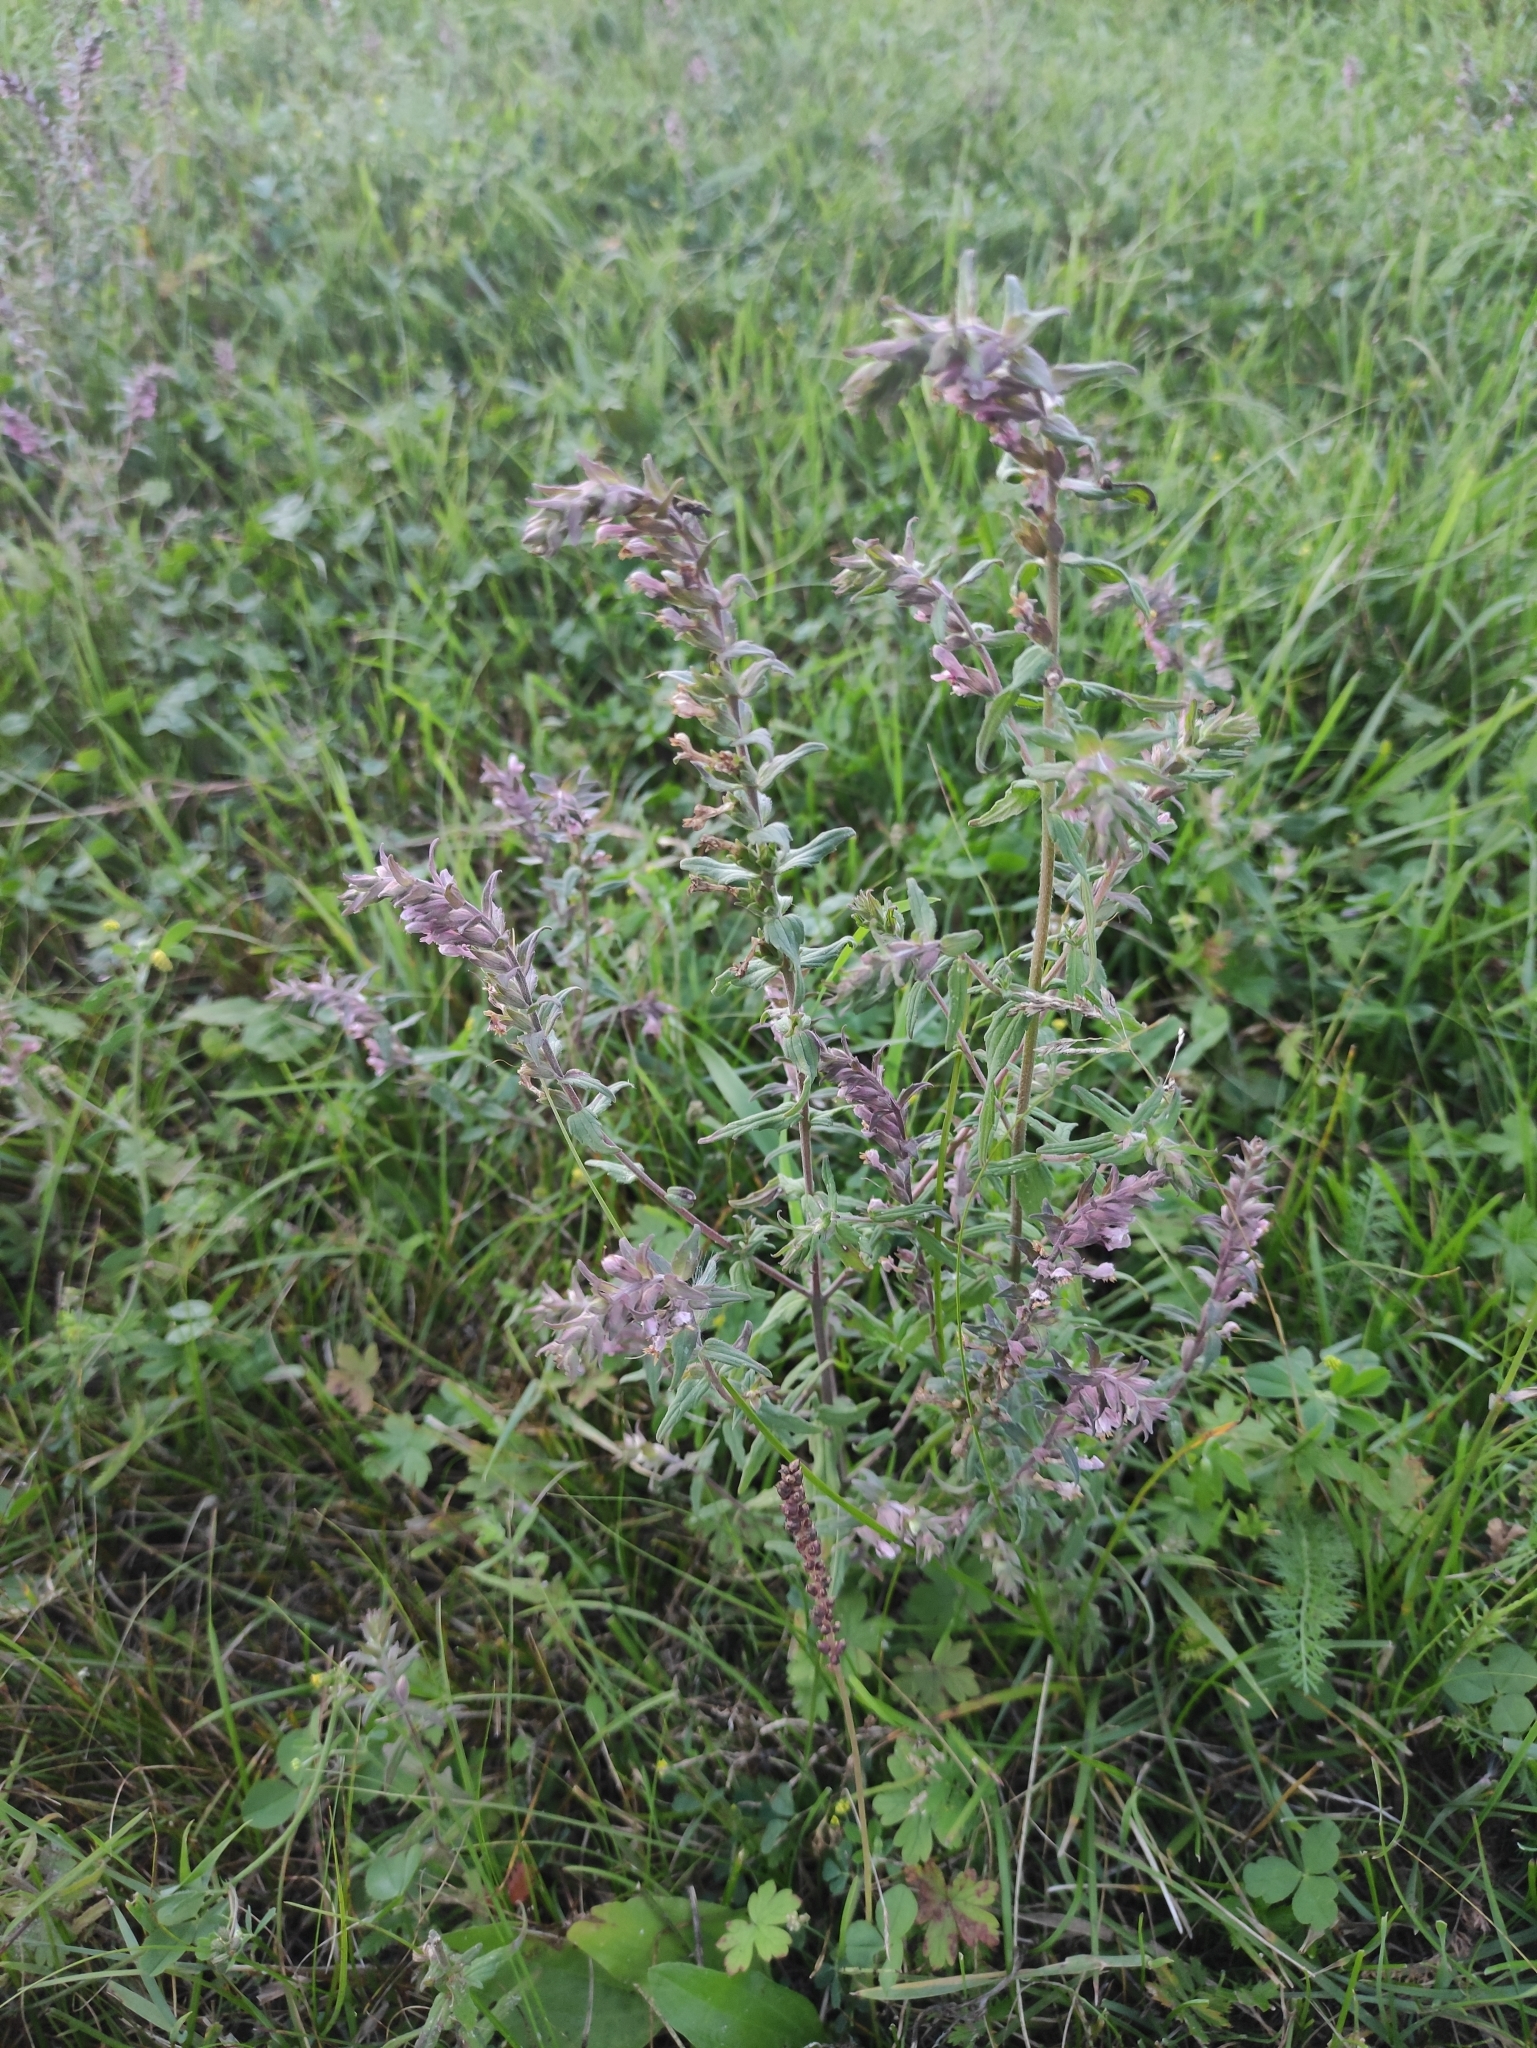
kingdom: Plantae
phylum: Tracheophyta
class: Magnoliopsida
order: Lamiales
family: Orobanchaceae
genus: Odontites
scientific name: Odontites vulgaris
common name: Broomrape
